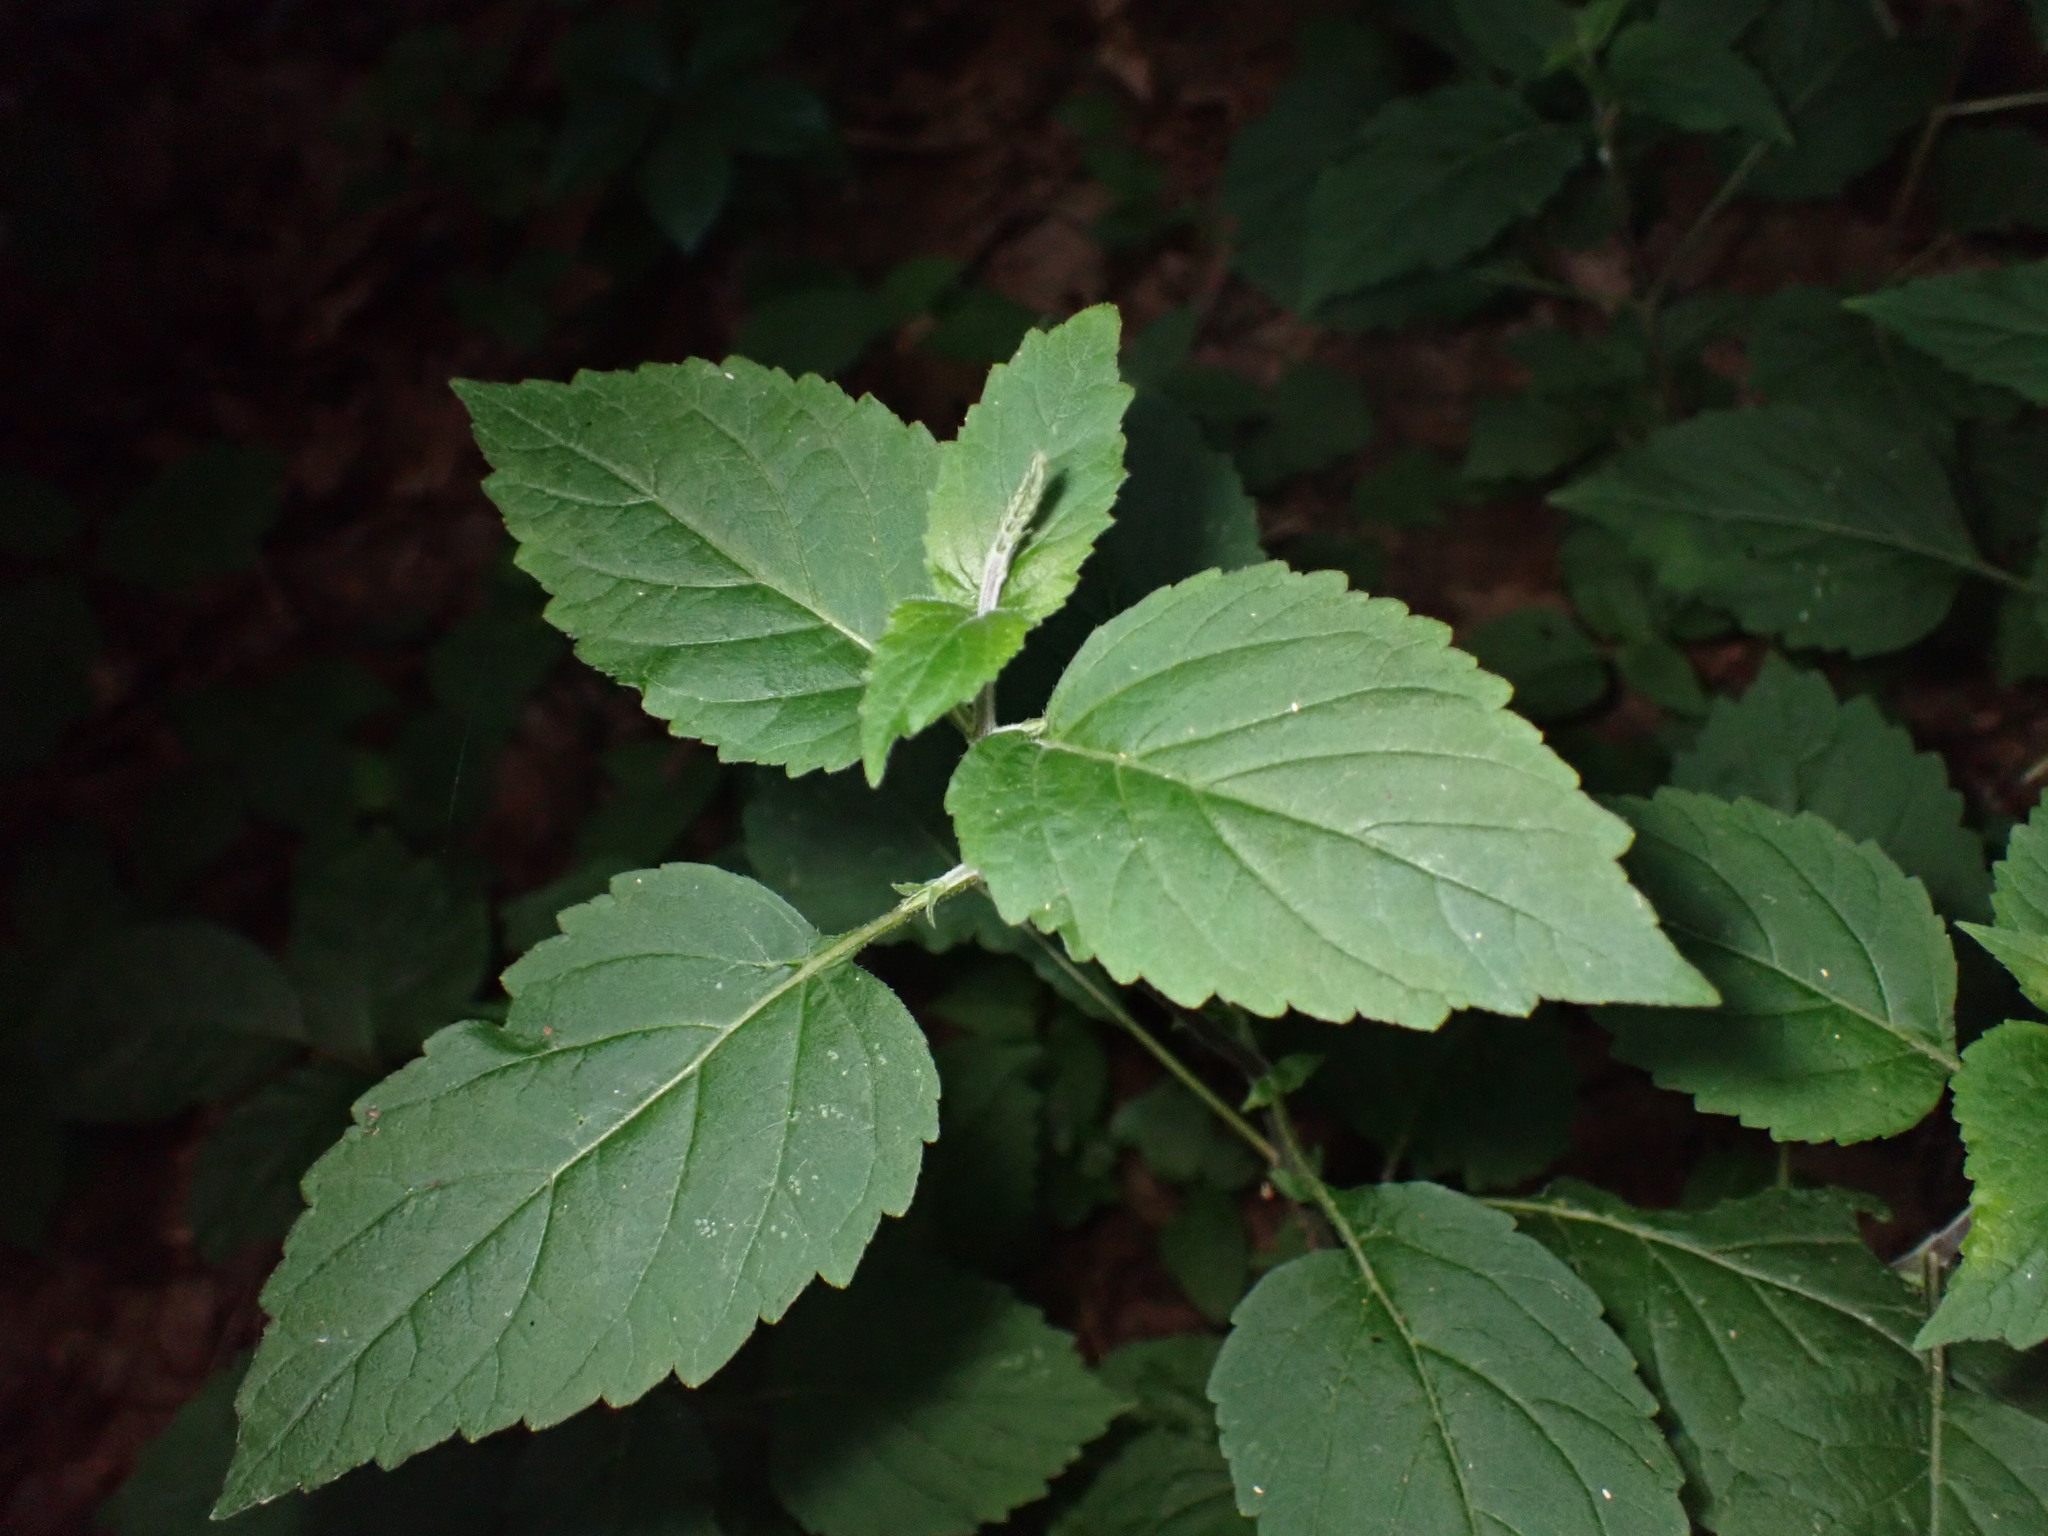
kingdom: Plantae
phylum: Tracheophyta
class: Magnoliopsida
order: Lamiales
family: Phrymaceae
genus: Phryma
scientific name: Phryma leptostachya
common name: American lopseed
